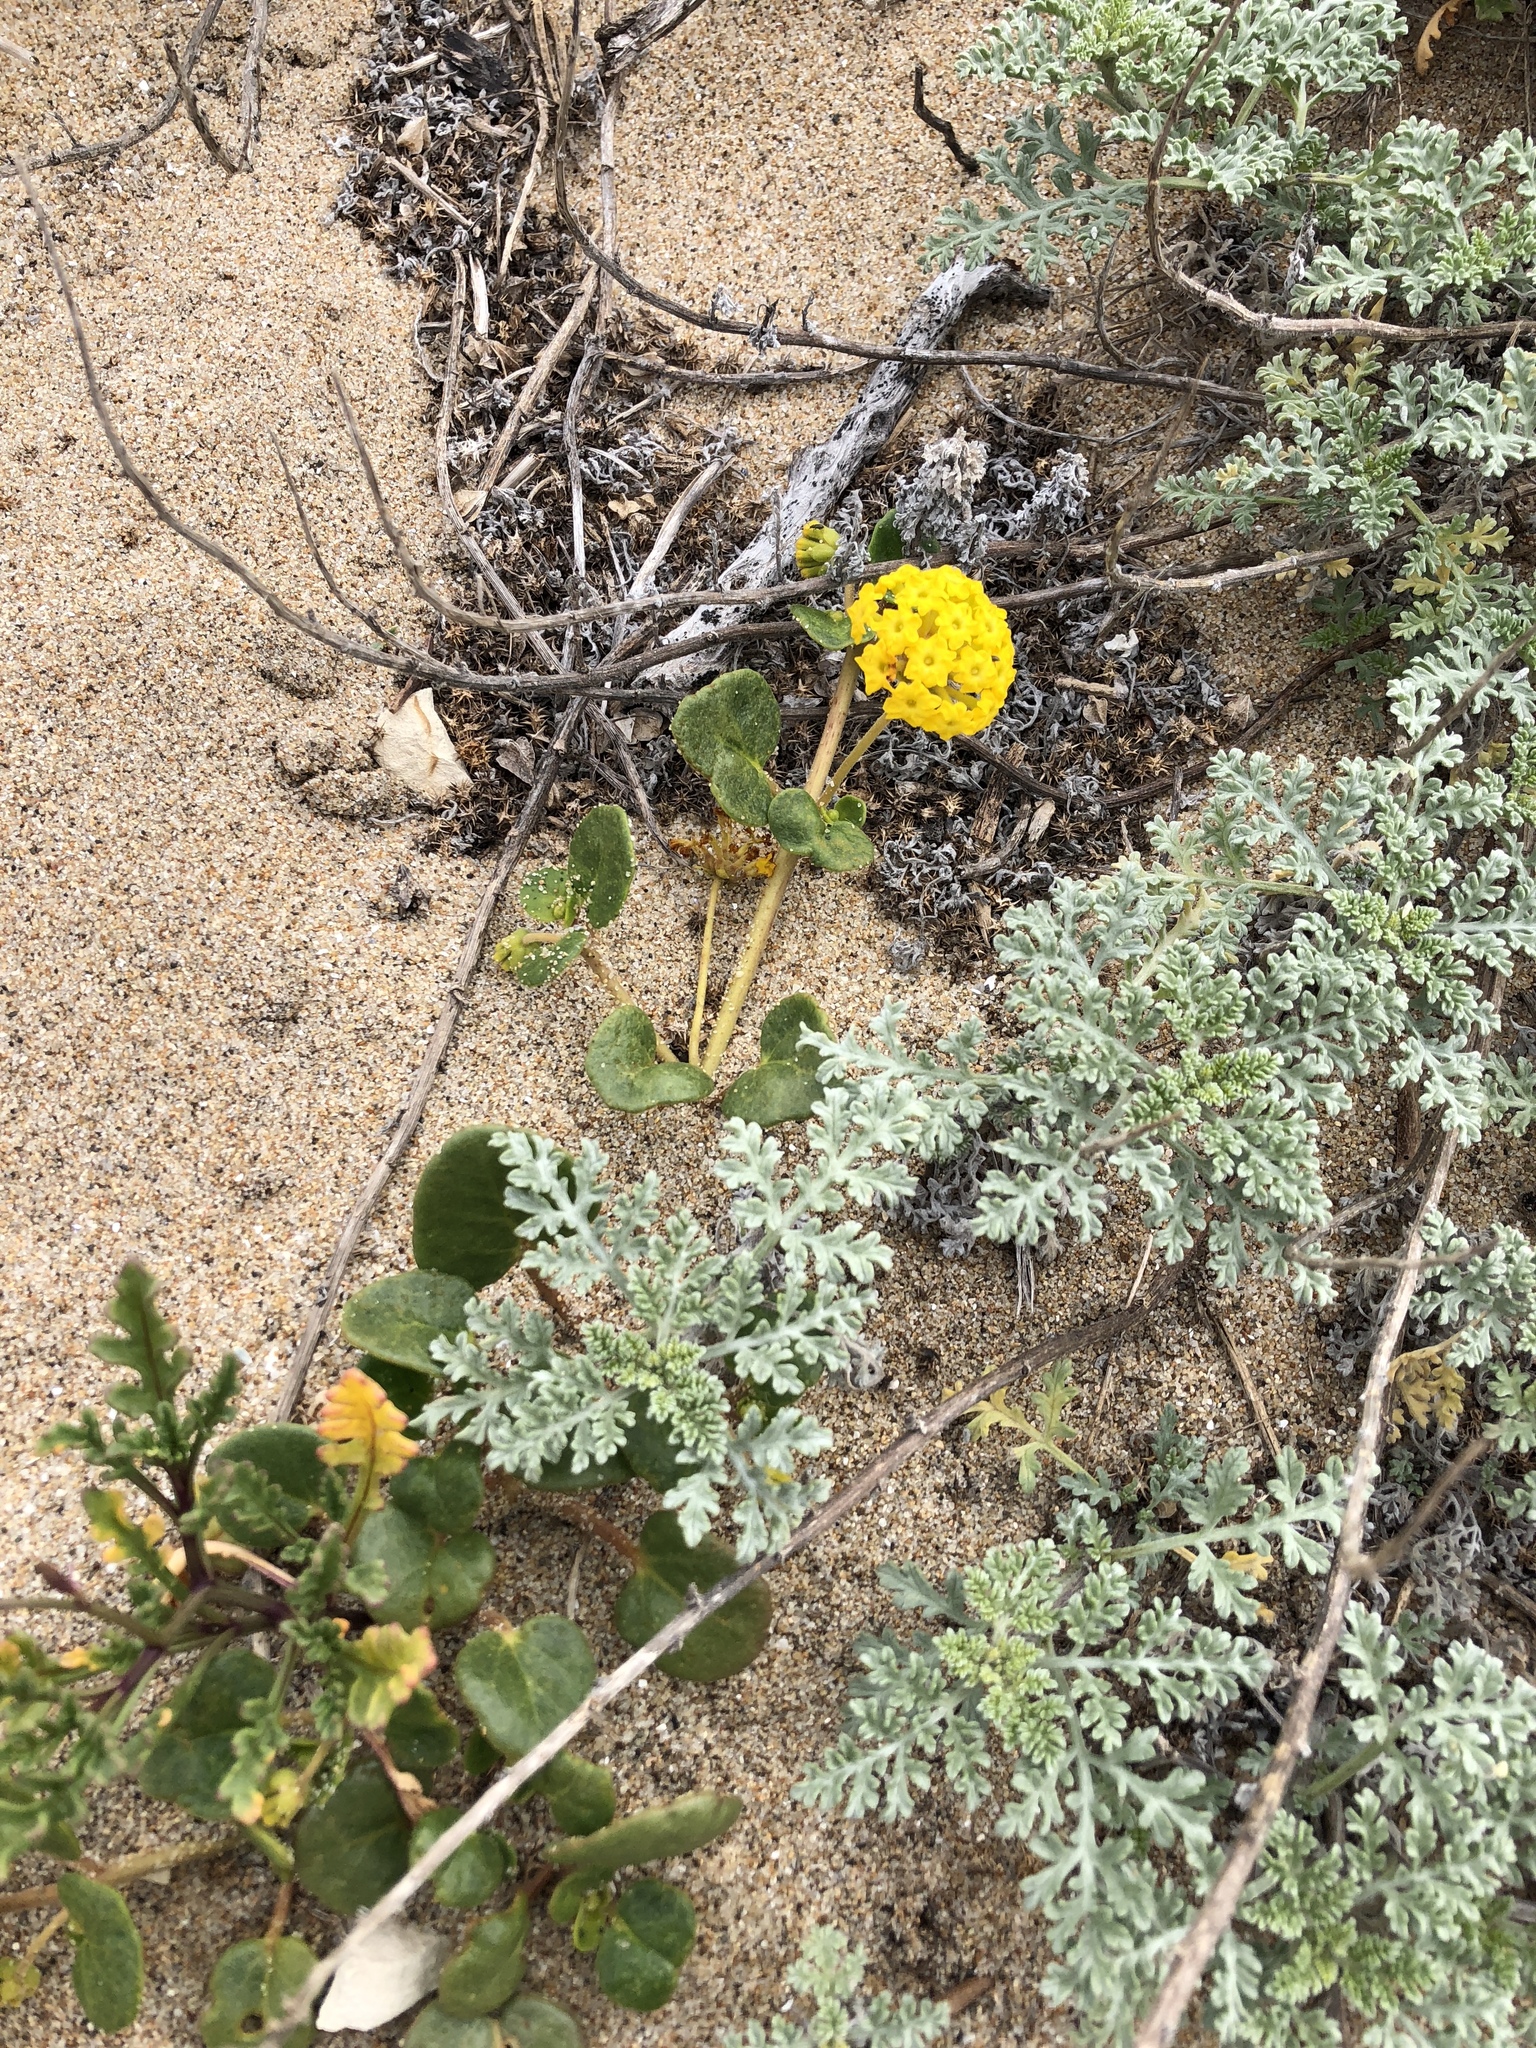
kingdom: Plantae
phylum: Tracheophyta
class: Magnoliopsida
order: Caryophyllales
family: Nyctaginaceae
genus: Abronia
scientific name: Abronia latifolia
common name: Yellow sand-verbena
